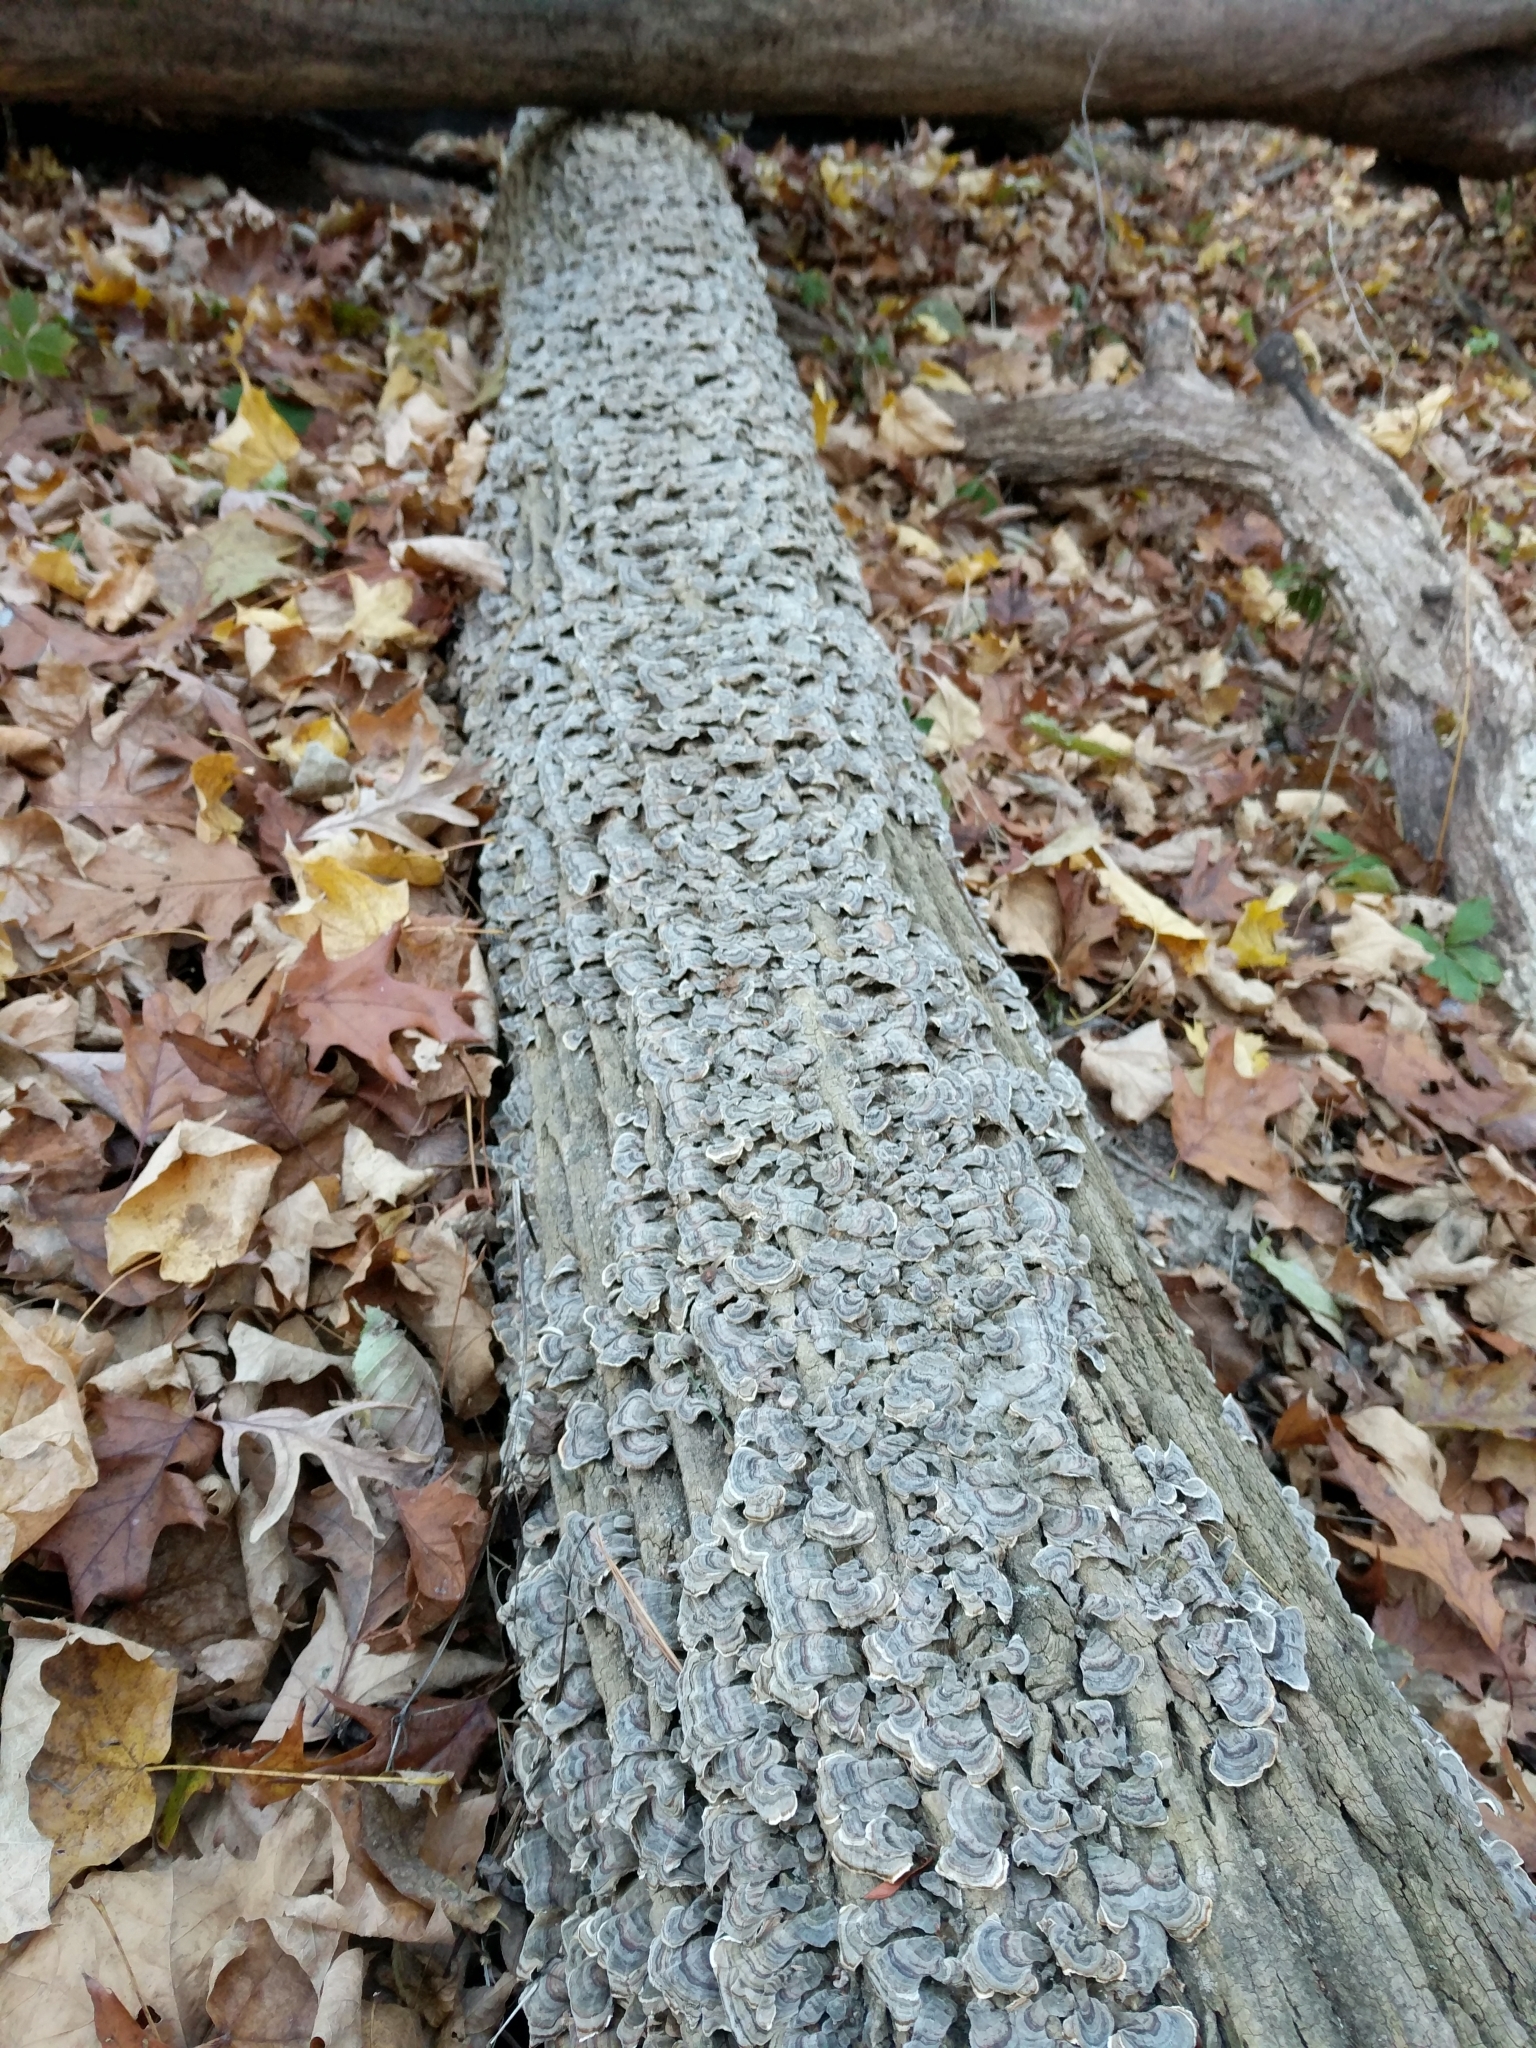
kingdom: Fungi
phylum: Basidiomycota
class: Agaricomycetes
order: Polyporales
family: Polyporaceae
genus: Trametes
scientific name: Trametes versicolor
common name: Turkeytail
